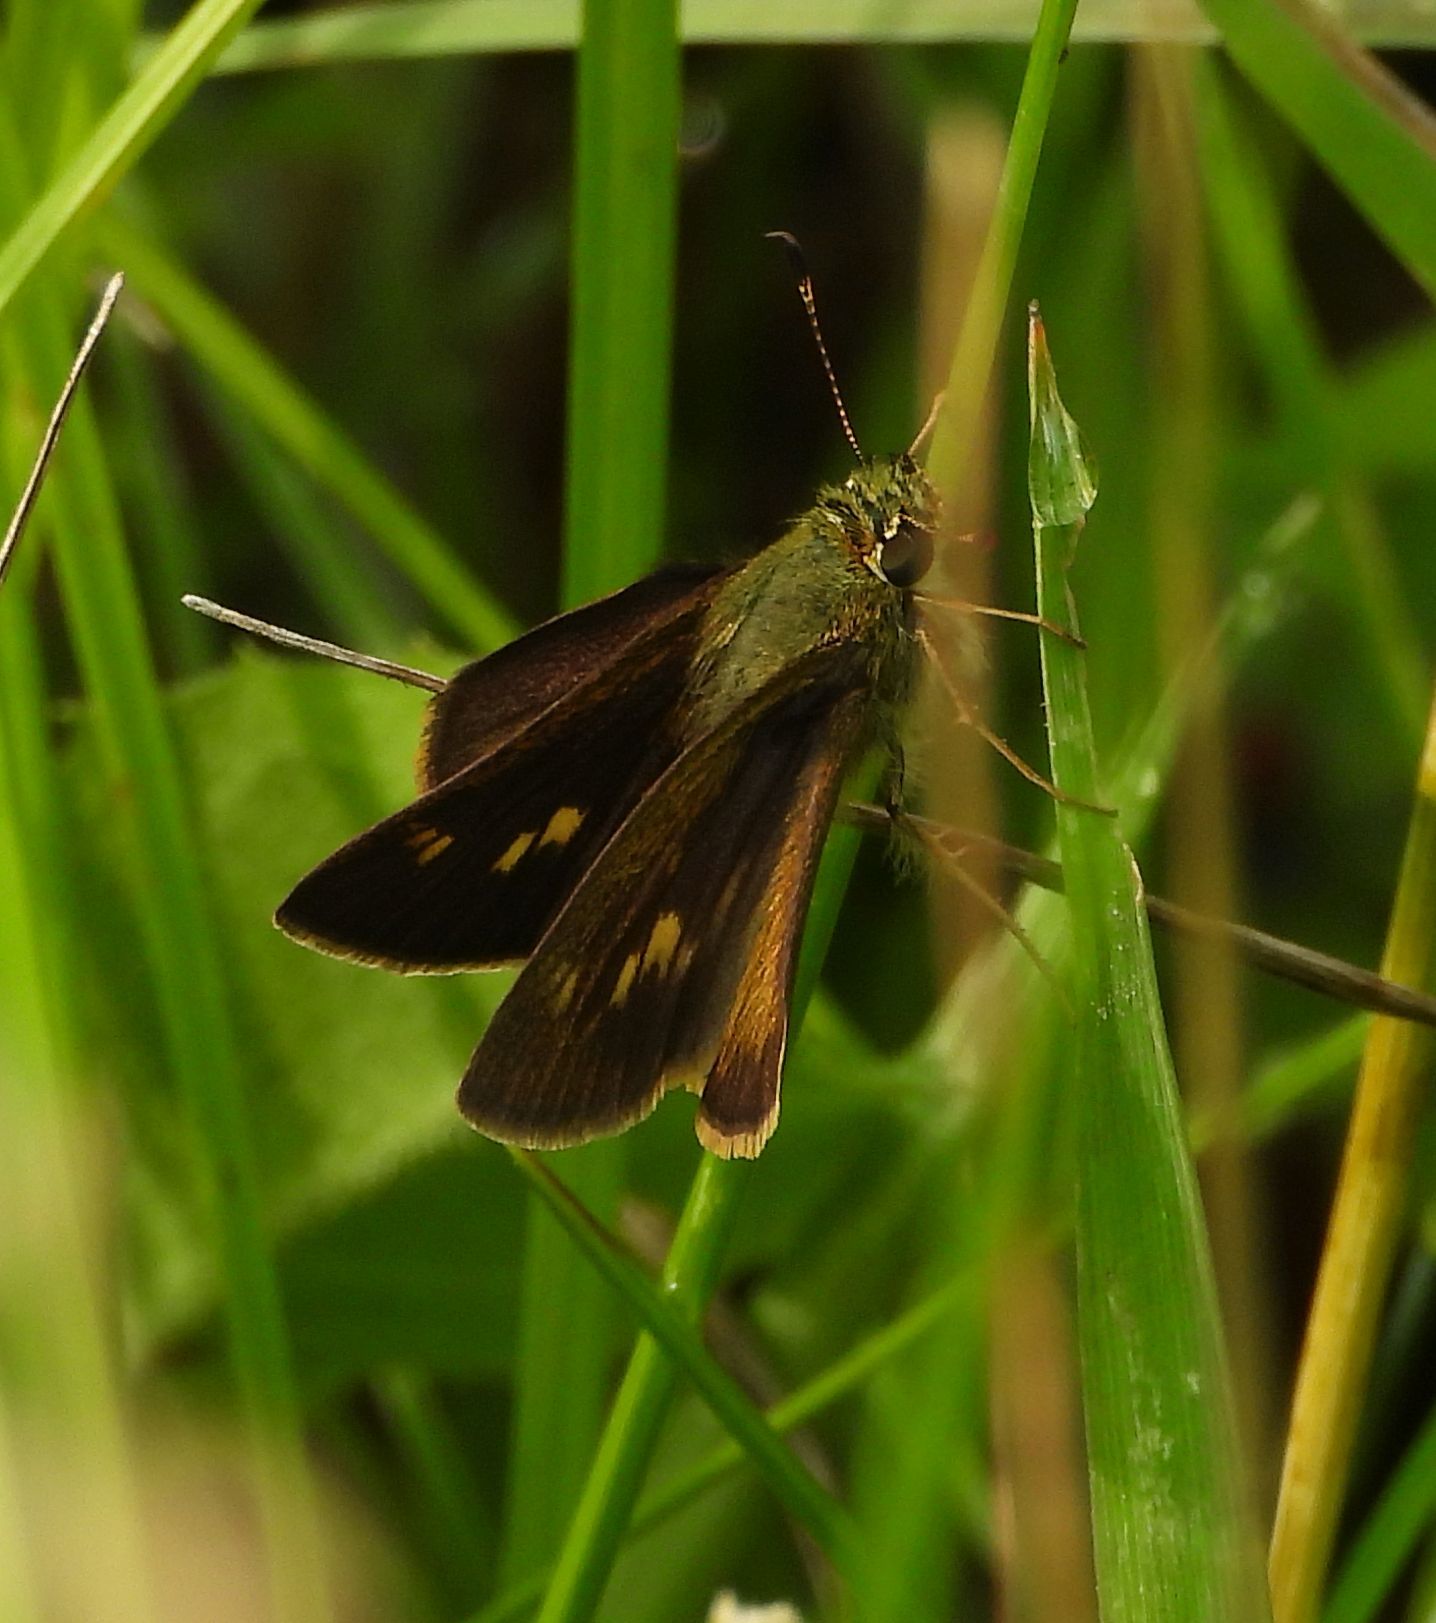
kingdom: Animalia
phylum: Arthropoda
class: Insecta
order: Lepidoptera
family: Hesperiidae
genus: Polites
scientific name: Polites egeremet
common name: Northern broken-dash
